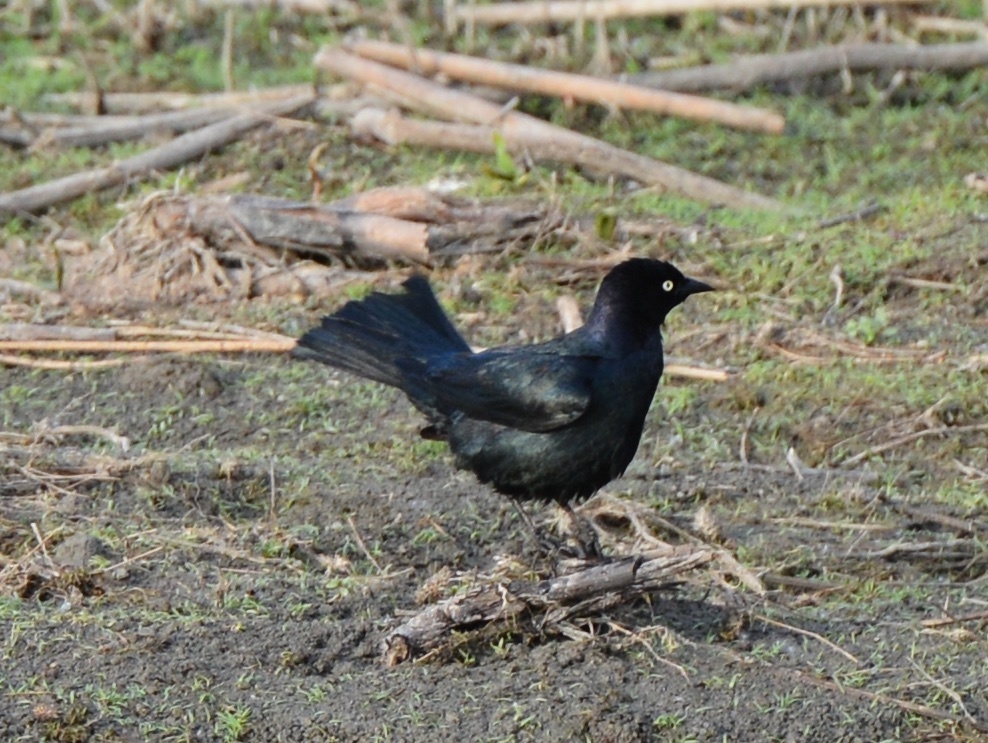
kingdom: Animalia
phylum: Chordata
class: Aves
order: Passeriformes
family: Icteridae
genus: Euphagus
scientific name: Euphagus cyanocephalus
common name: Brewer's blackbird
